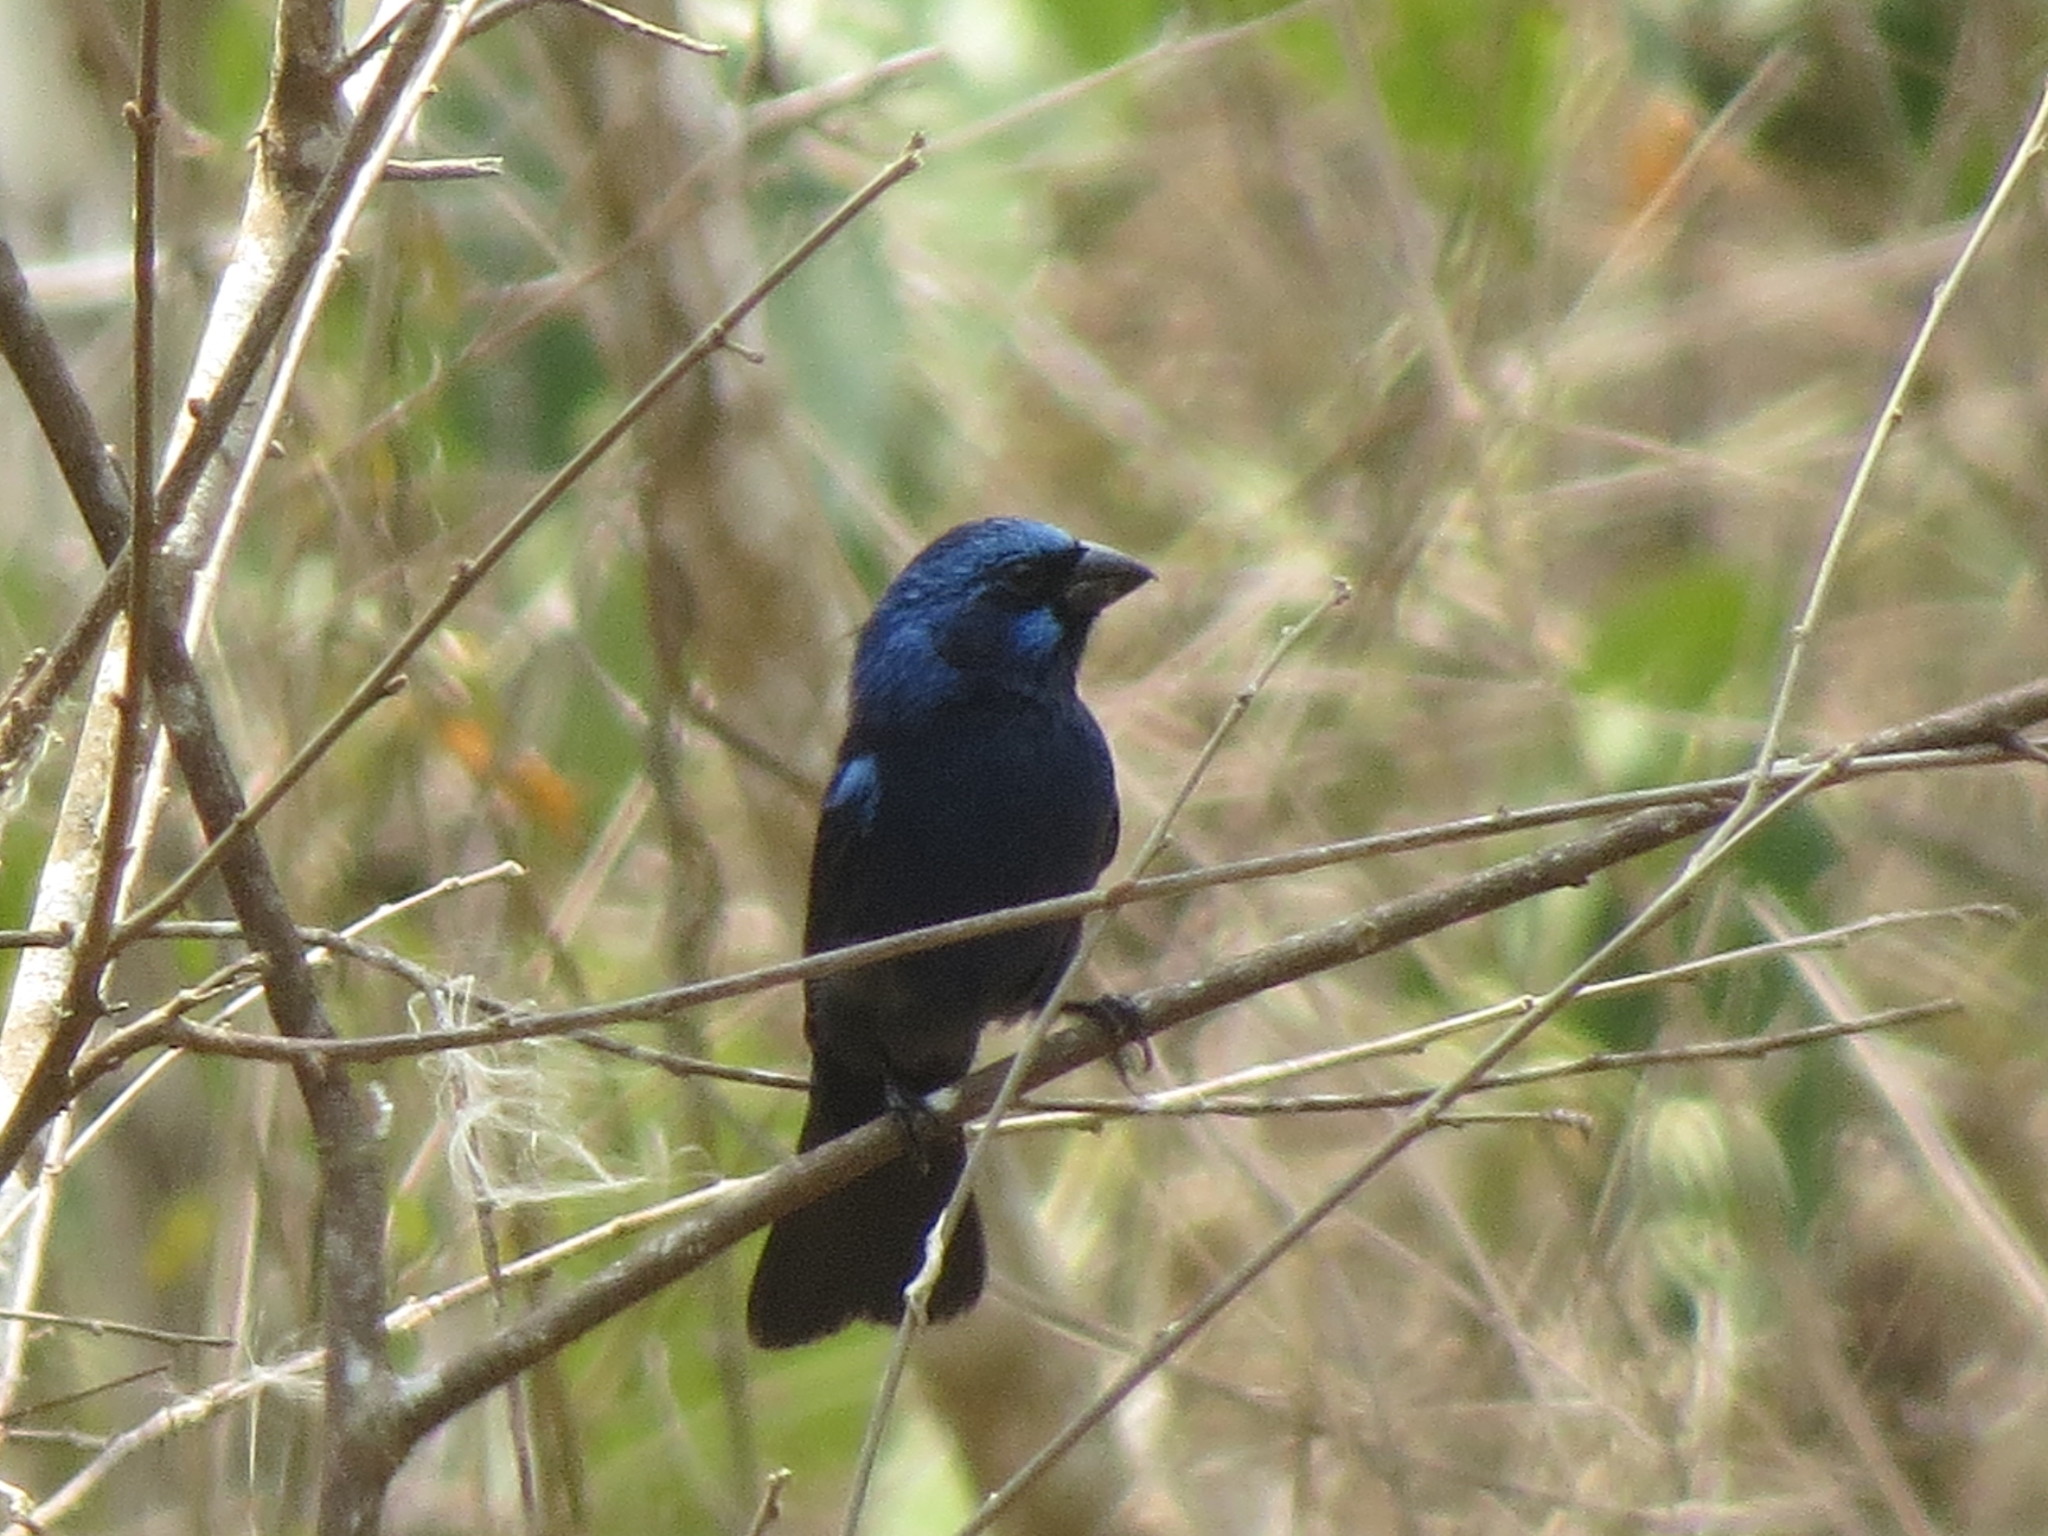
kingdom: Animalia
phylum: Chordata
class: Aves
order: Passeriformes
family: Cardinalidae
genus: Cyanocompsa
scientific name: Cyanocompsa parellina
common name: Blue bunting
